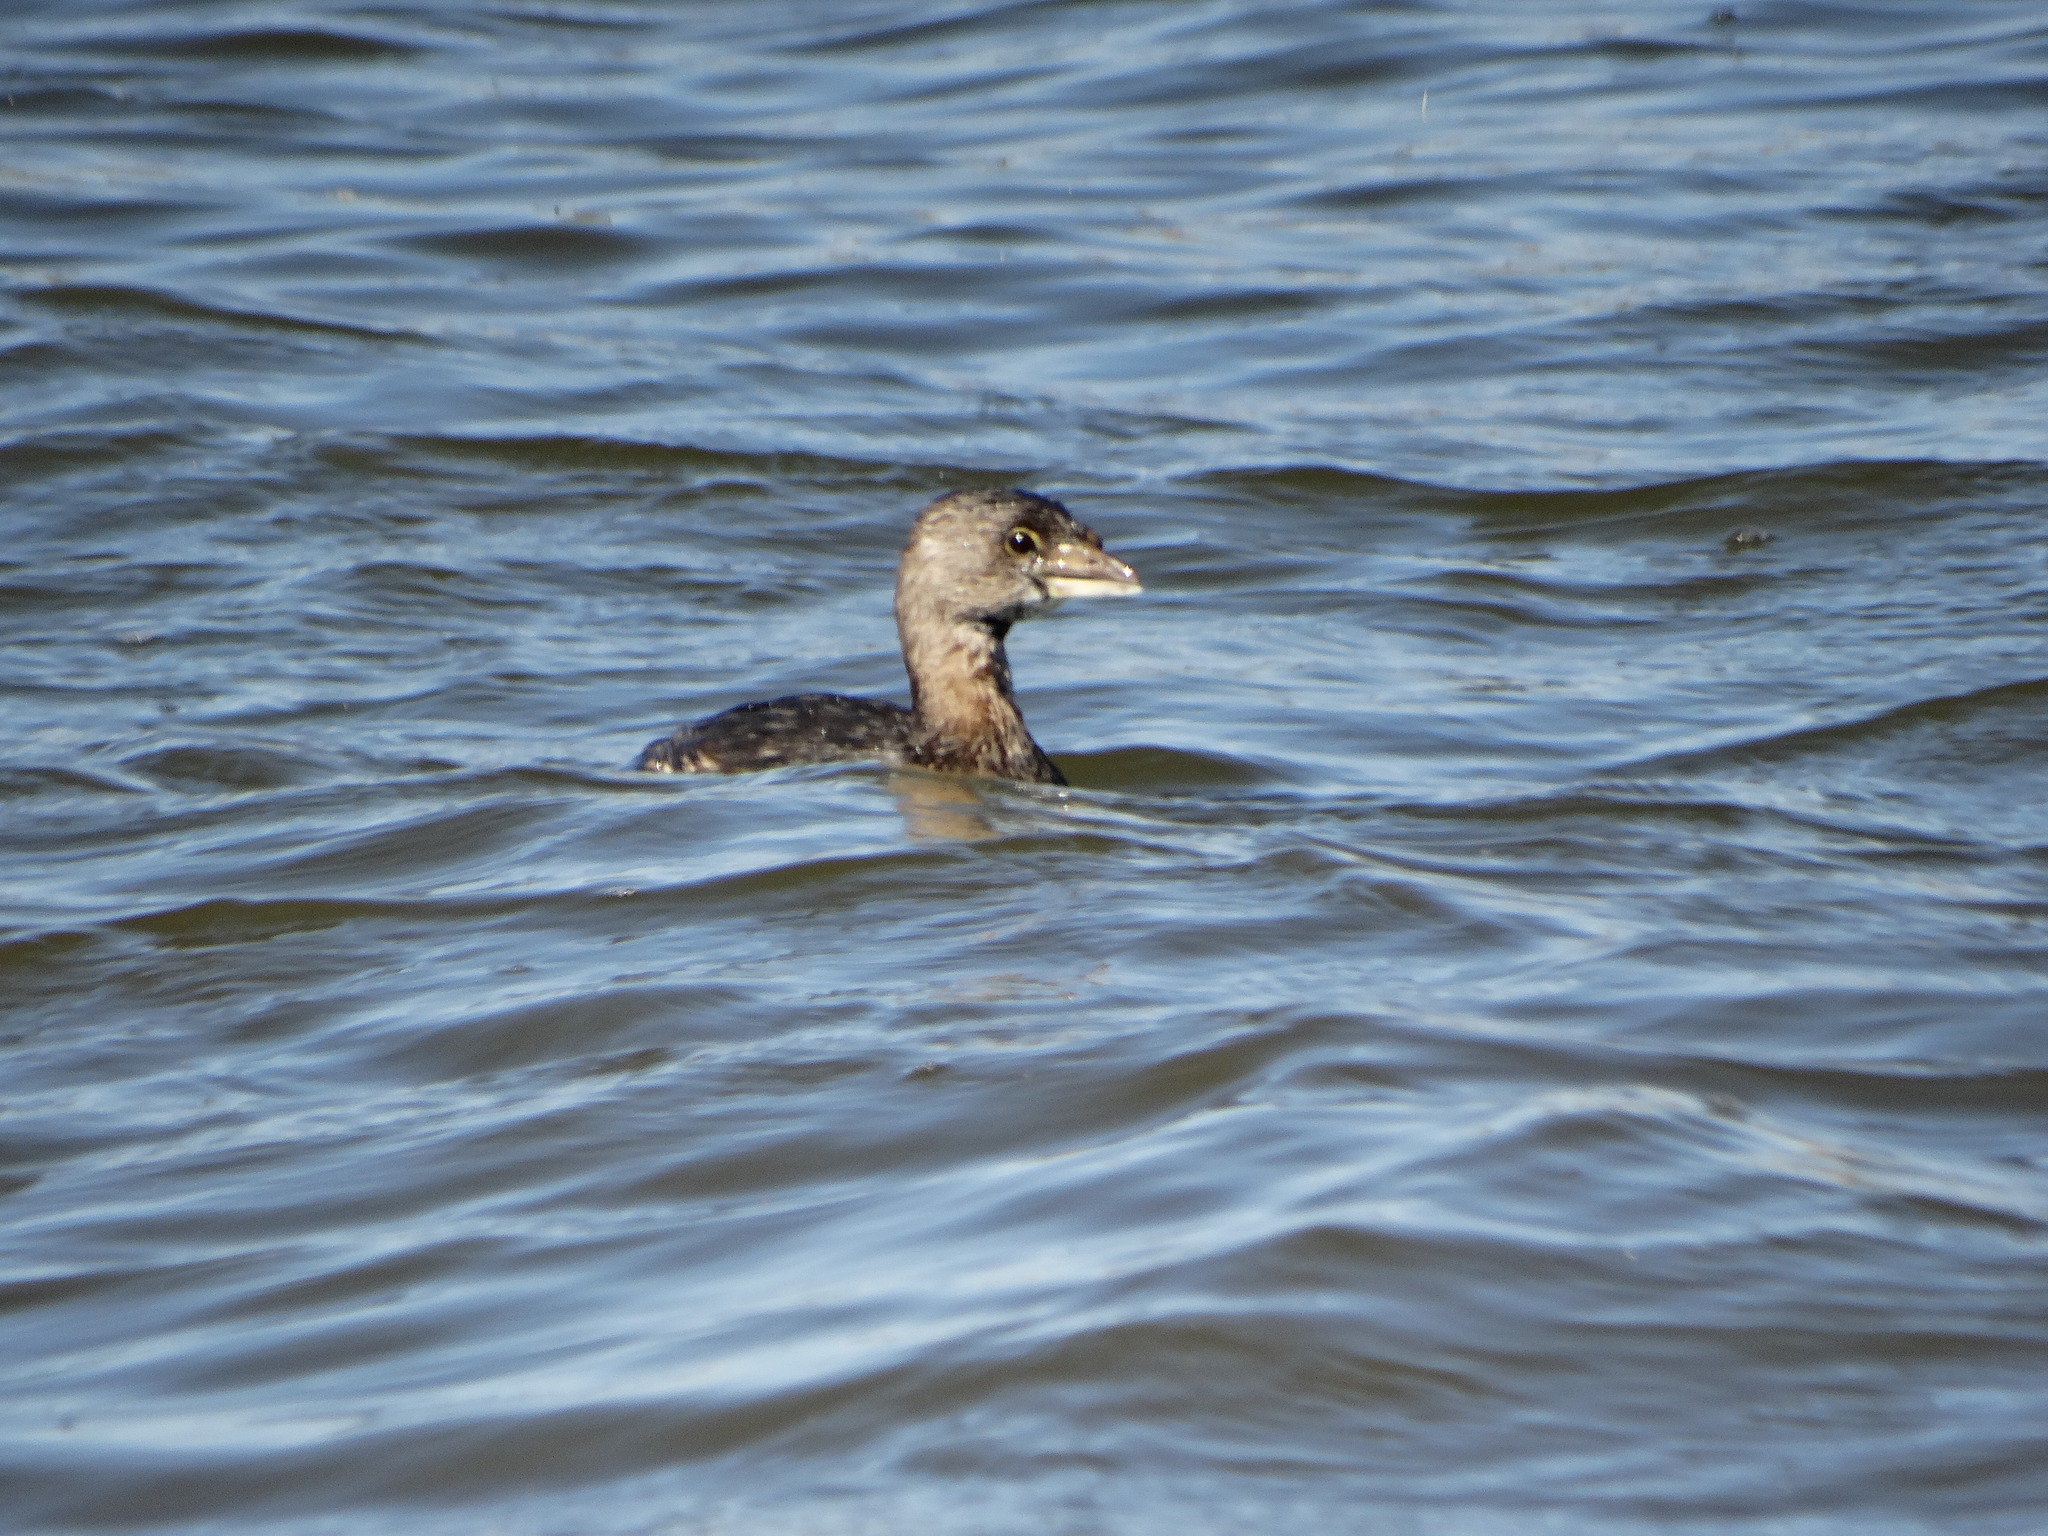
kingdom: Animalia
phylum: Chordata
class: Aves
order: Podicipediformes
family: Podicipedidae
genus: Podilymbus
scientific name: Podilymbus podiceps
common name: Pied-billed grebe
